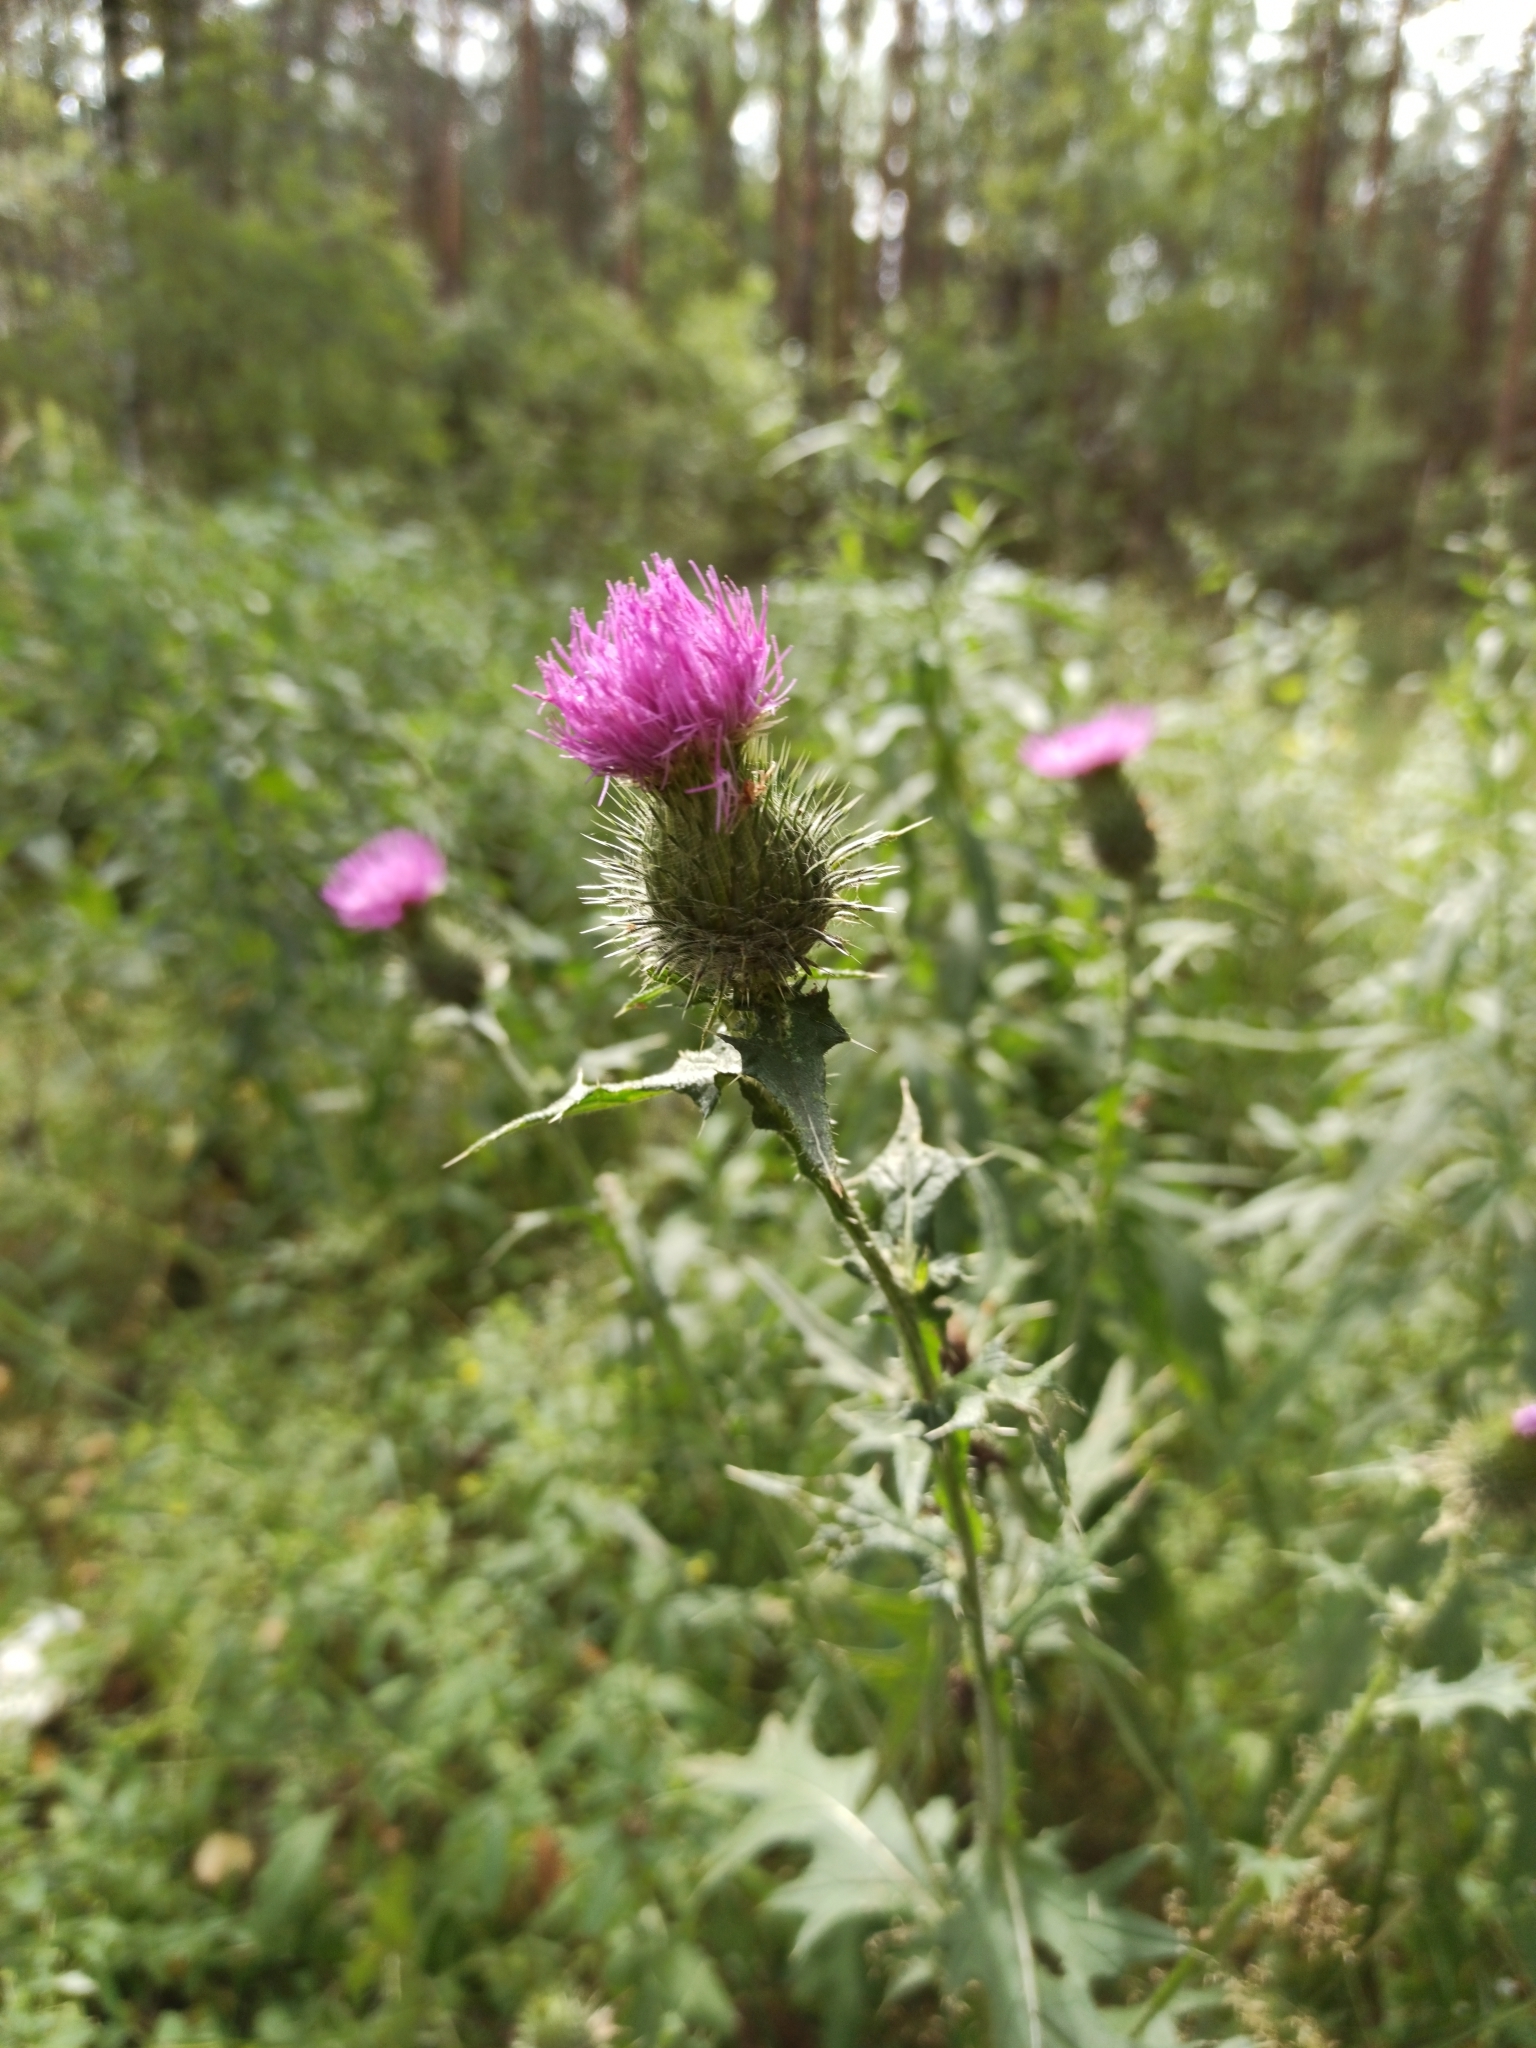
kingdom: Plantae
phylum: Tracheophyta
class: Magnoliopsida
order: Asterales
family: Asteraceae
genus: Cirsium
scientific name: Cirsium vulgare
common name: Bull thistle
